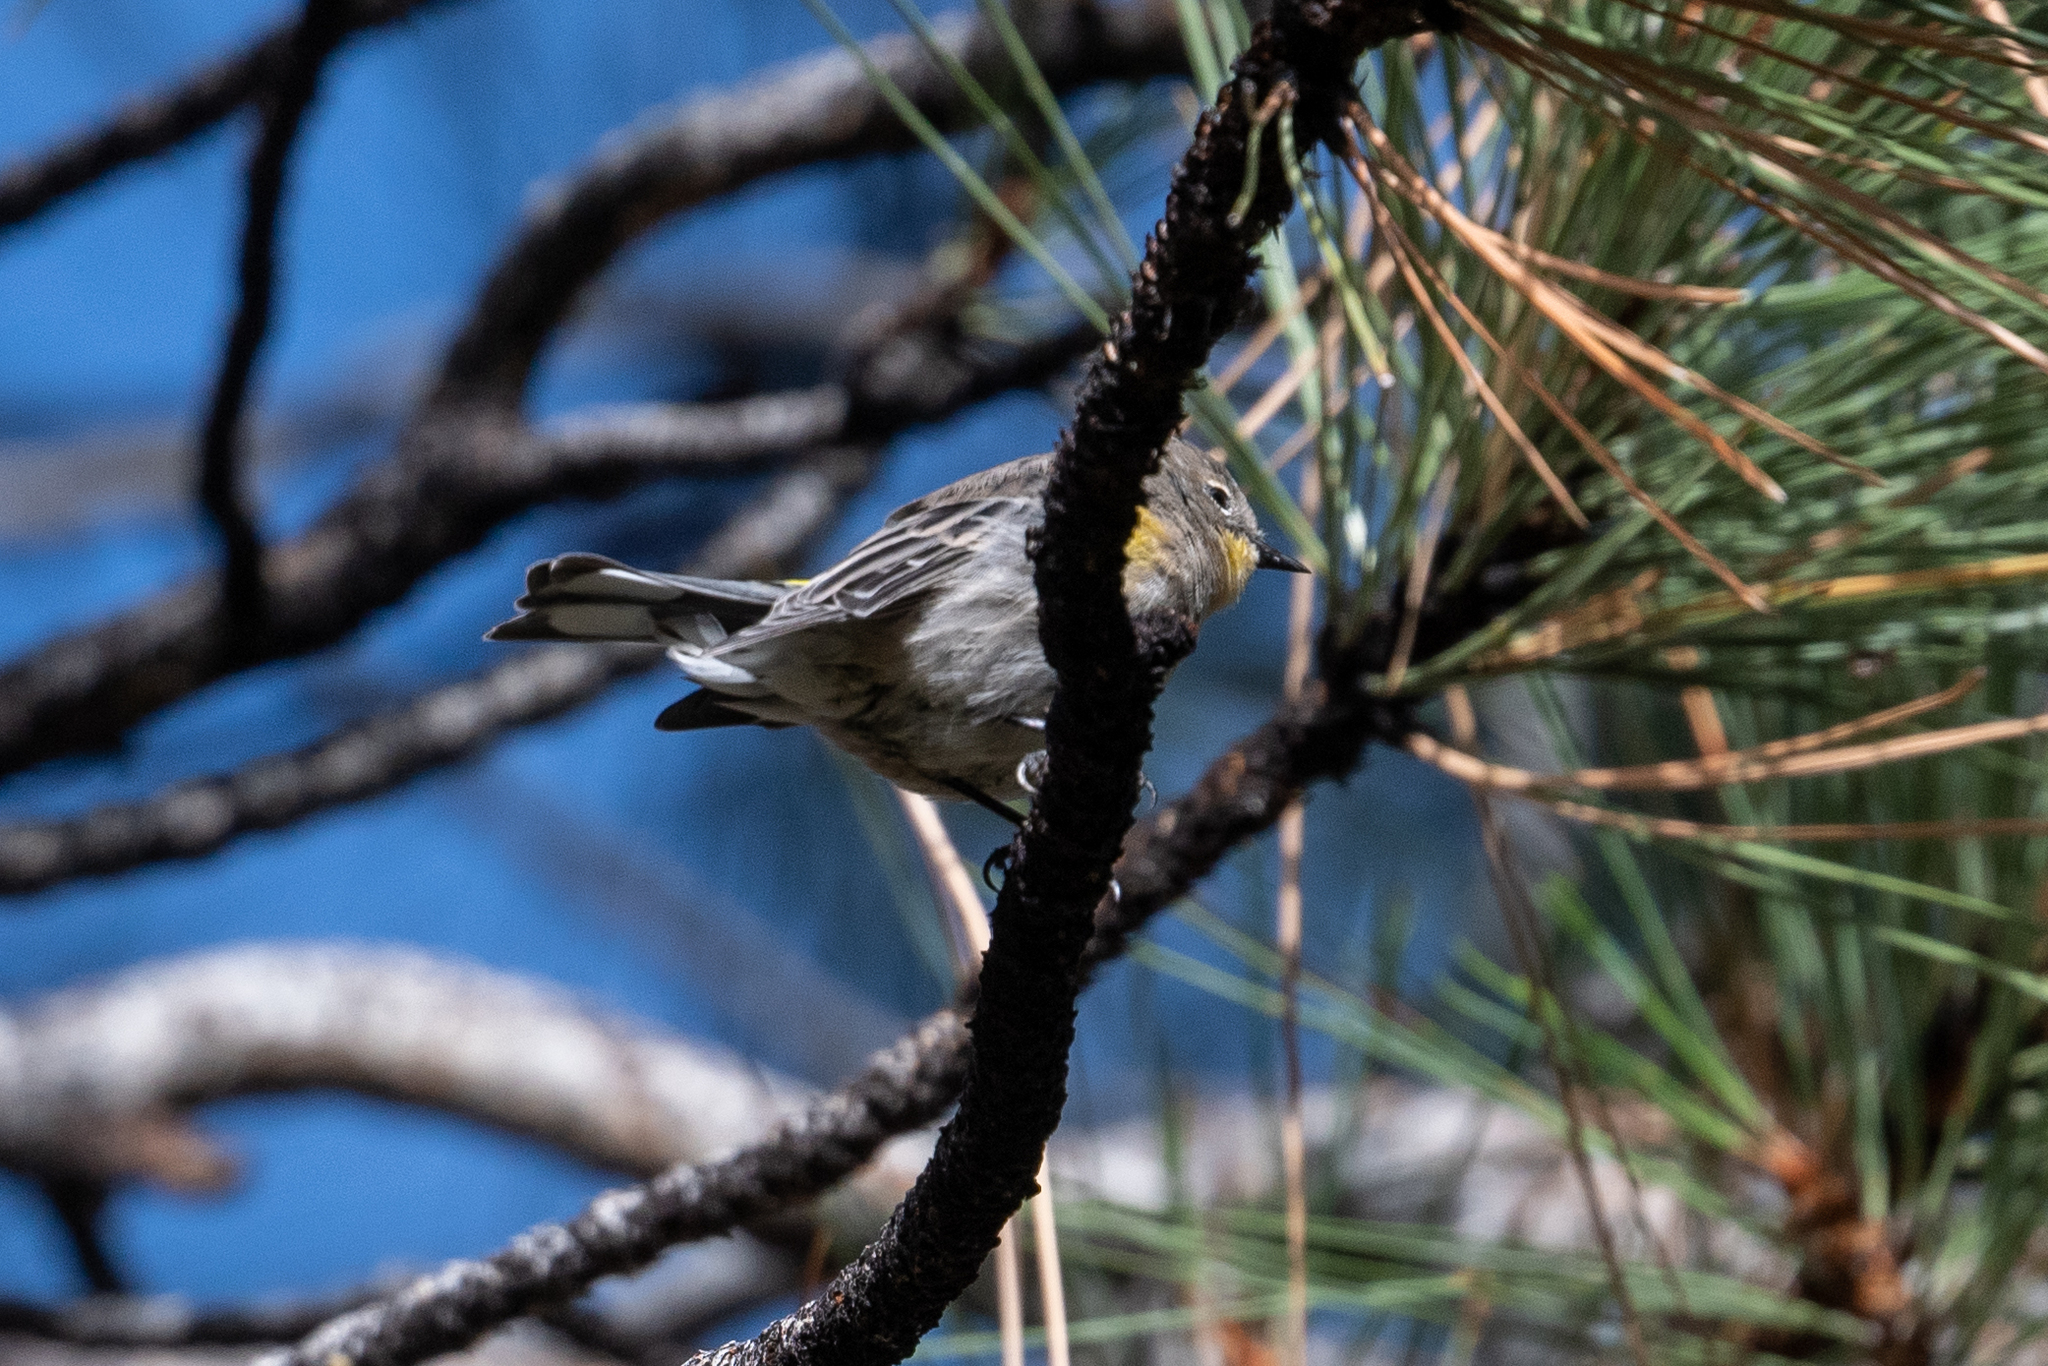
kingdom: Animalia
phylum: Chordata
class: Aves
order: Passeriformes
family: Parulidae
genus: Setophaga
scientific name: Setophaga coronata
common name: Myrtle warbler
